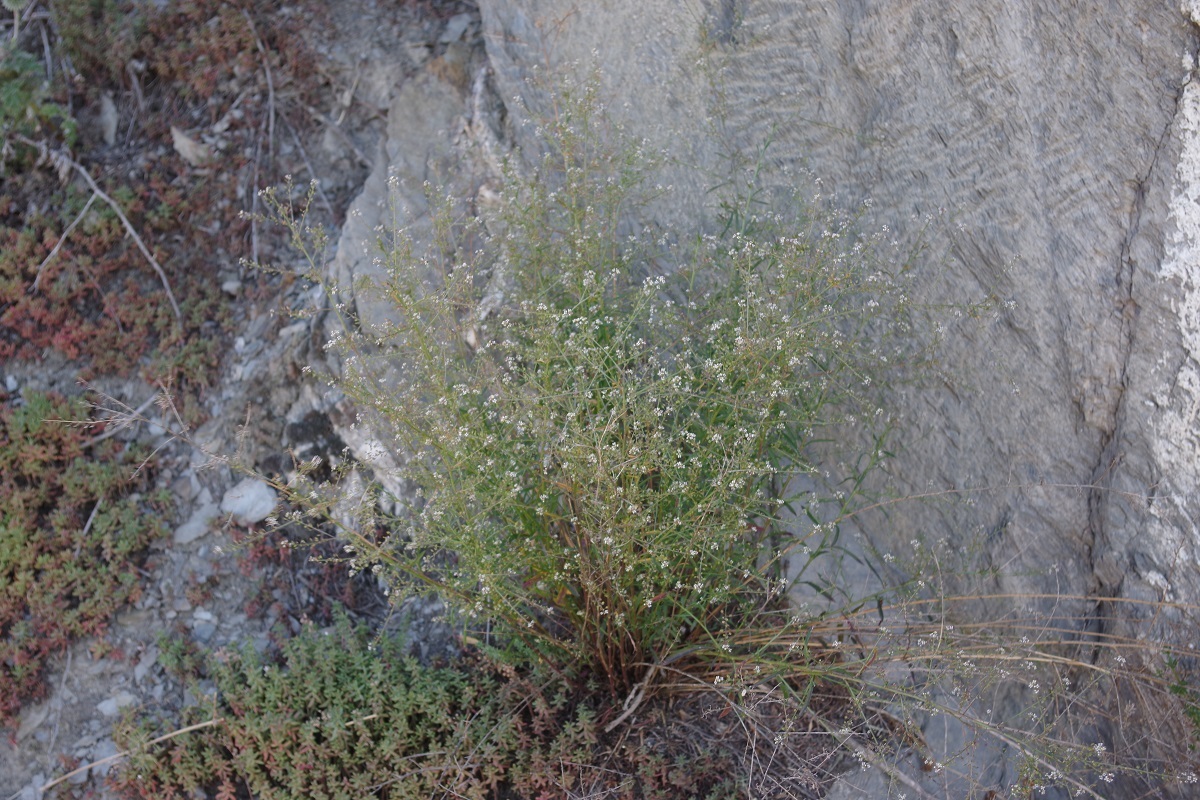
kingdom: Plantae
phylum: Tracheophyta
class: Magnoliopsida
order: Brassicales
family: Brassicaceae
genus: Lepidium
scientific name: Lepidium graminifolium
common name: Tall pepperwort
